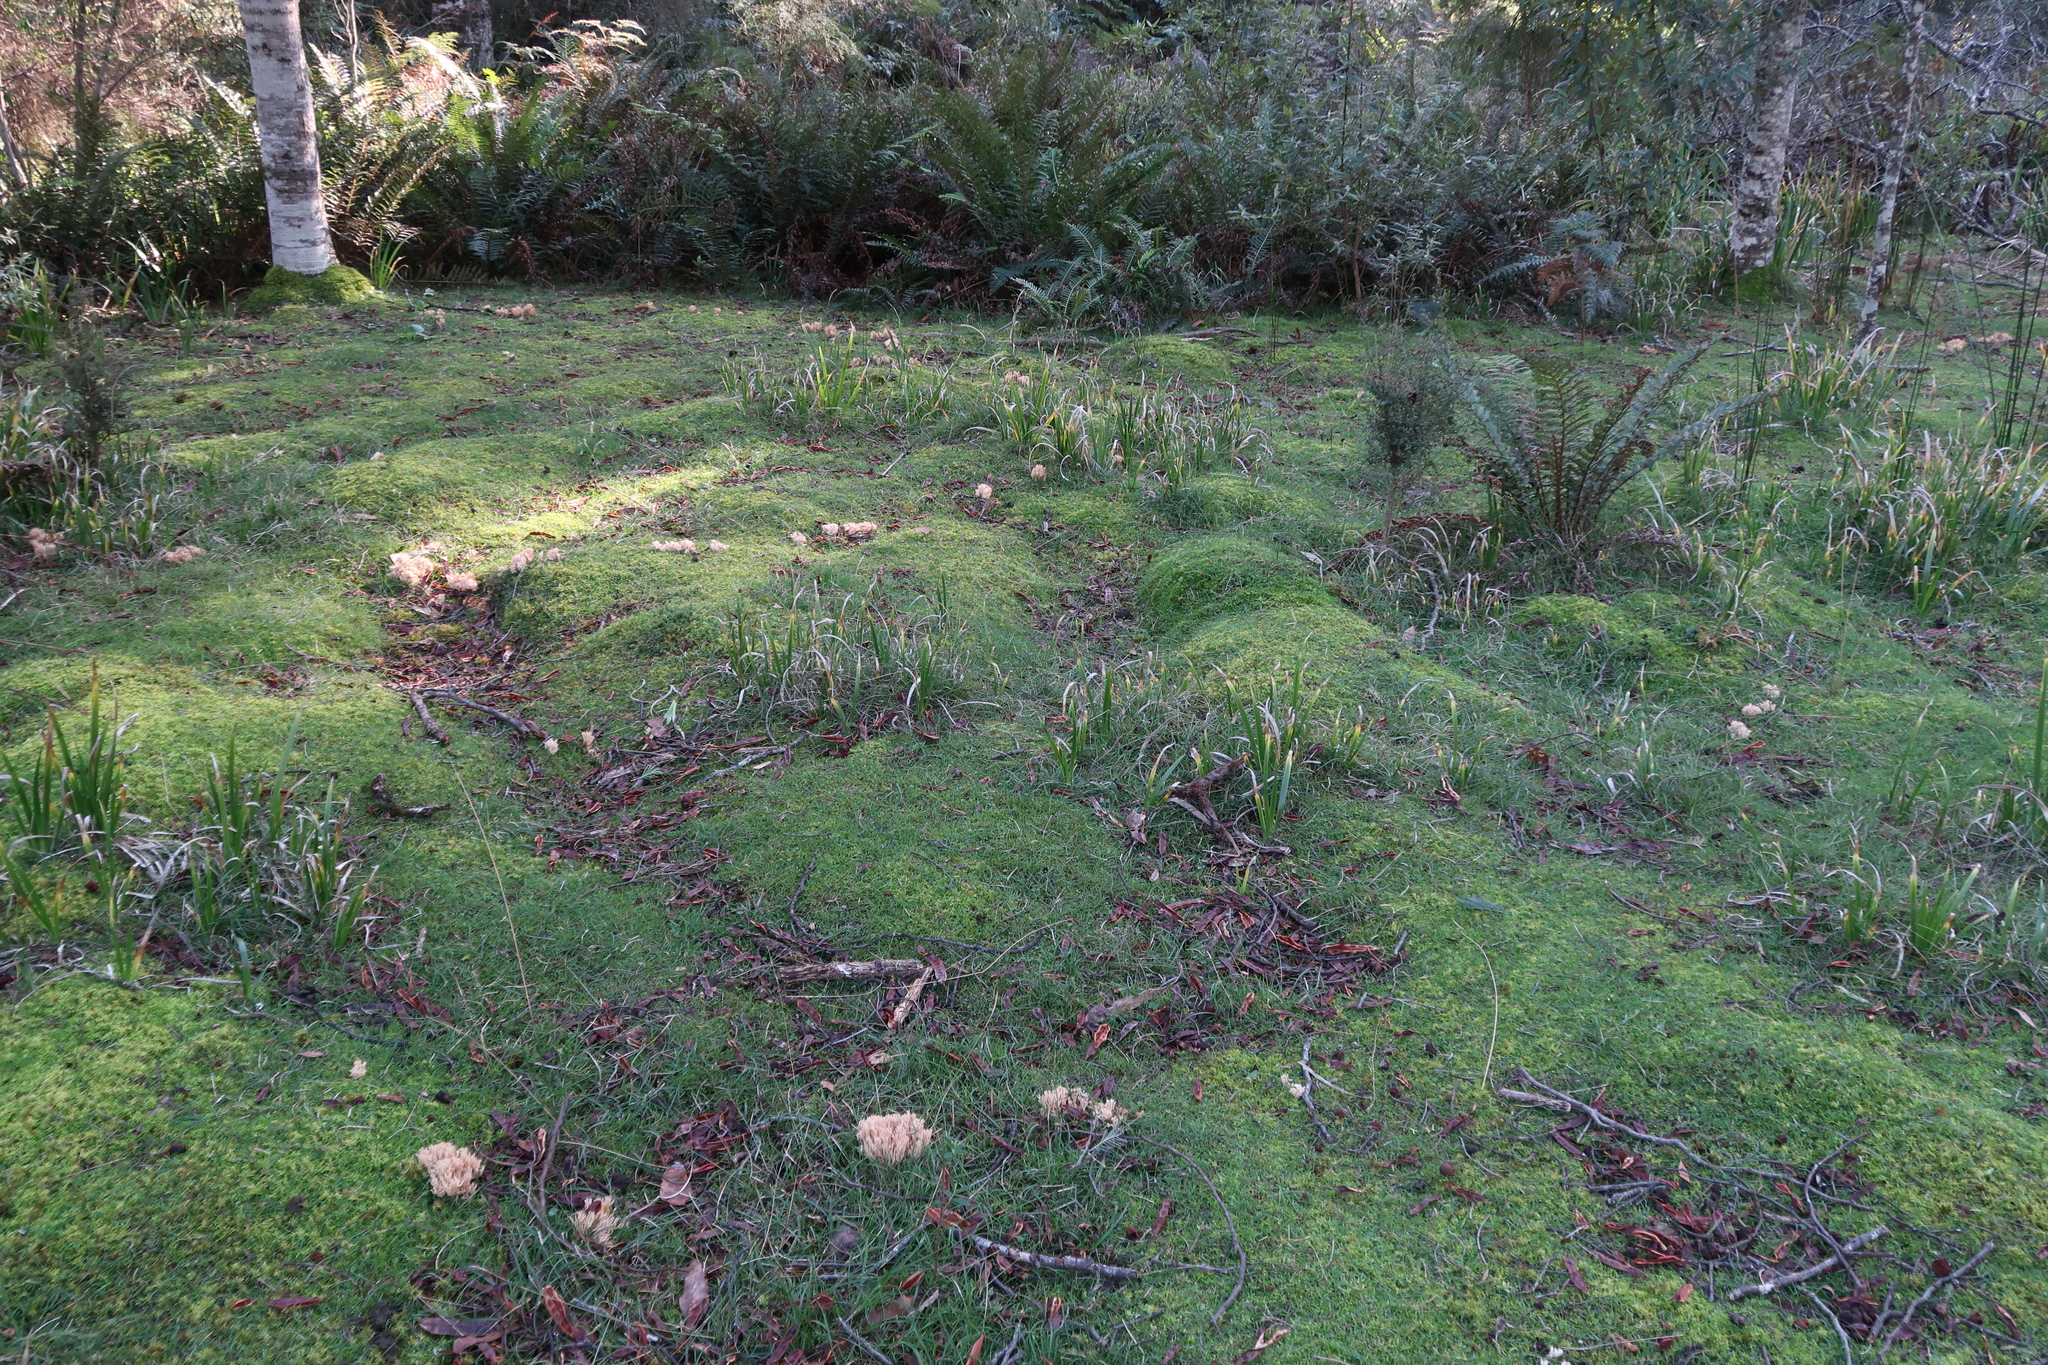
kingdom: Fungi
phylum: Basidiomycota
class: Agaricomycetes
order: Gomphales
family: Gomphaceae
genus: Ramaria
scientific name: Ramaria filicicola
